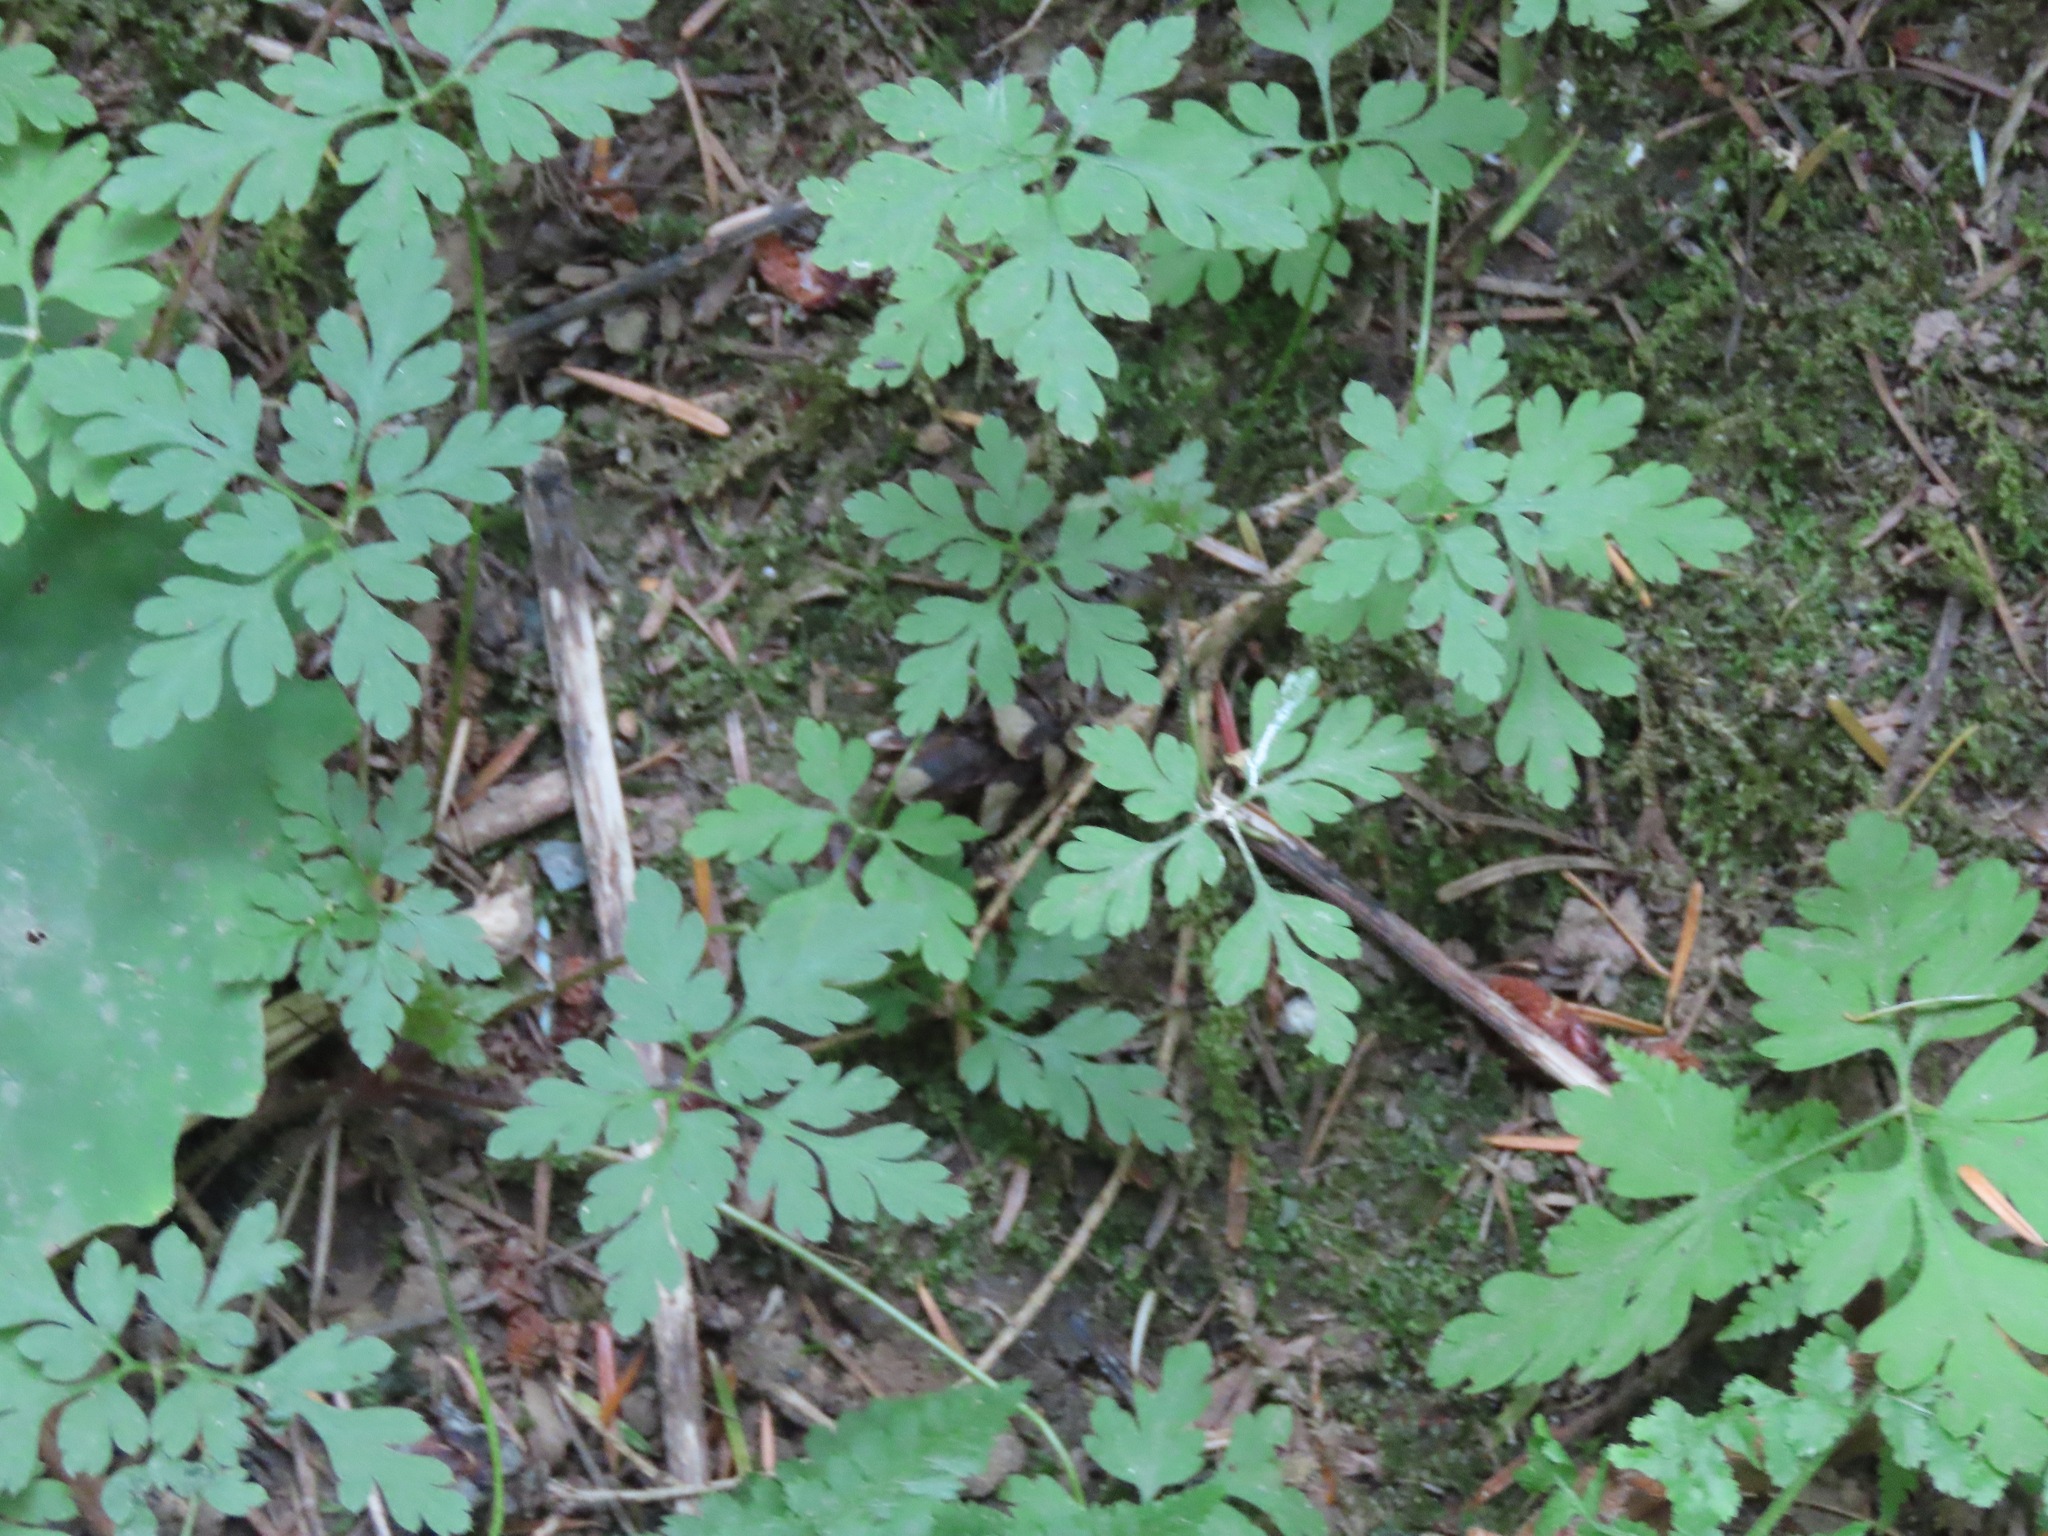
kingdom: Plantae
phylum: Tracheophyta
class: Magnoliopsida
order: Geraniales
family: Geraniaceae
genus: Geranium
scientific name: Geranium robertianum
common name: Herb-robert
